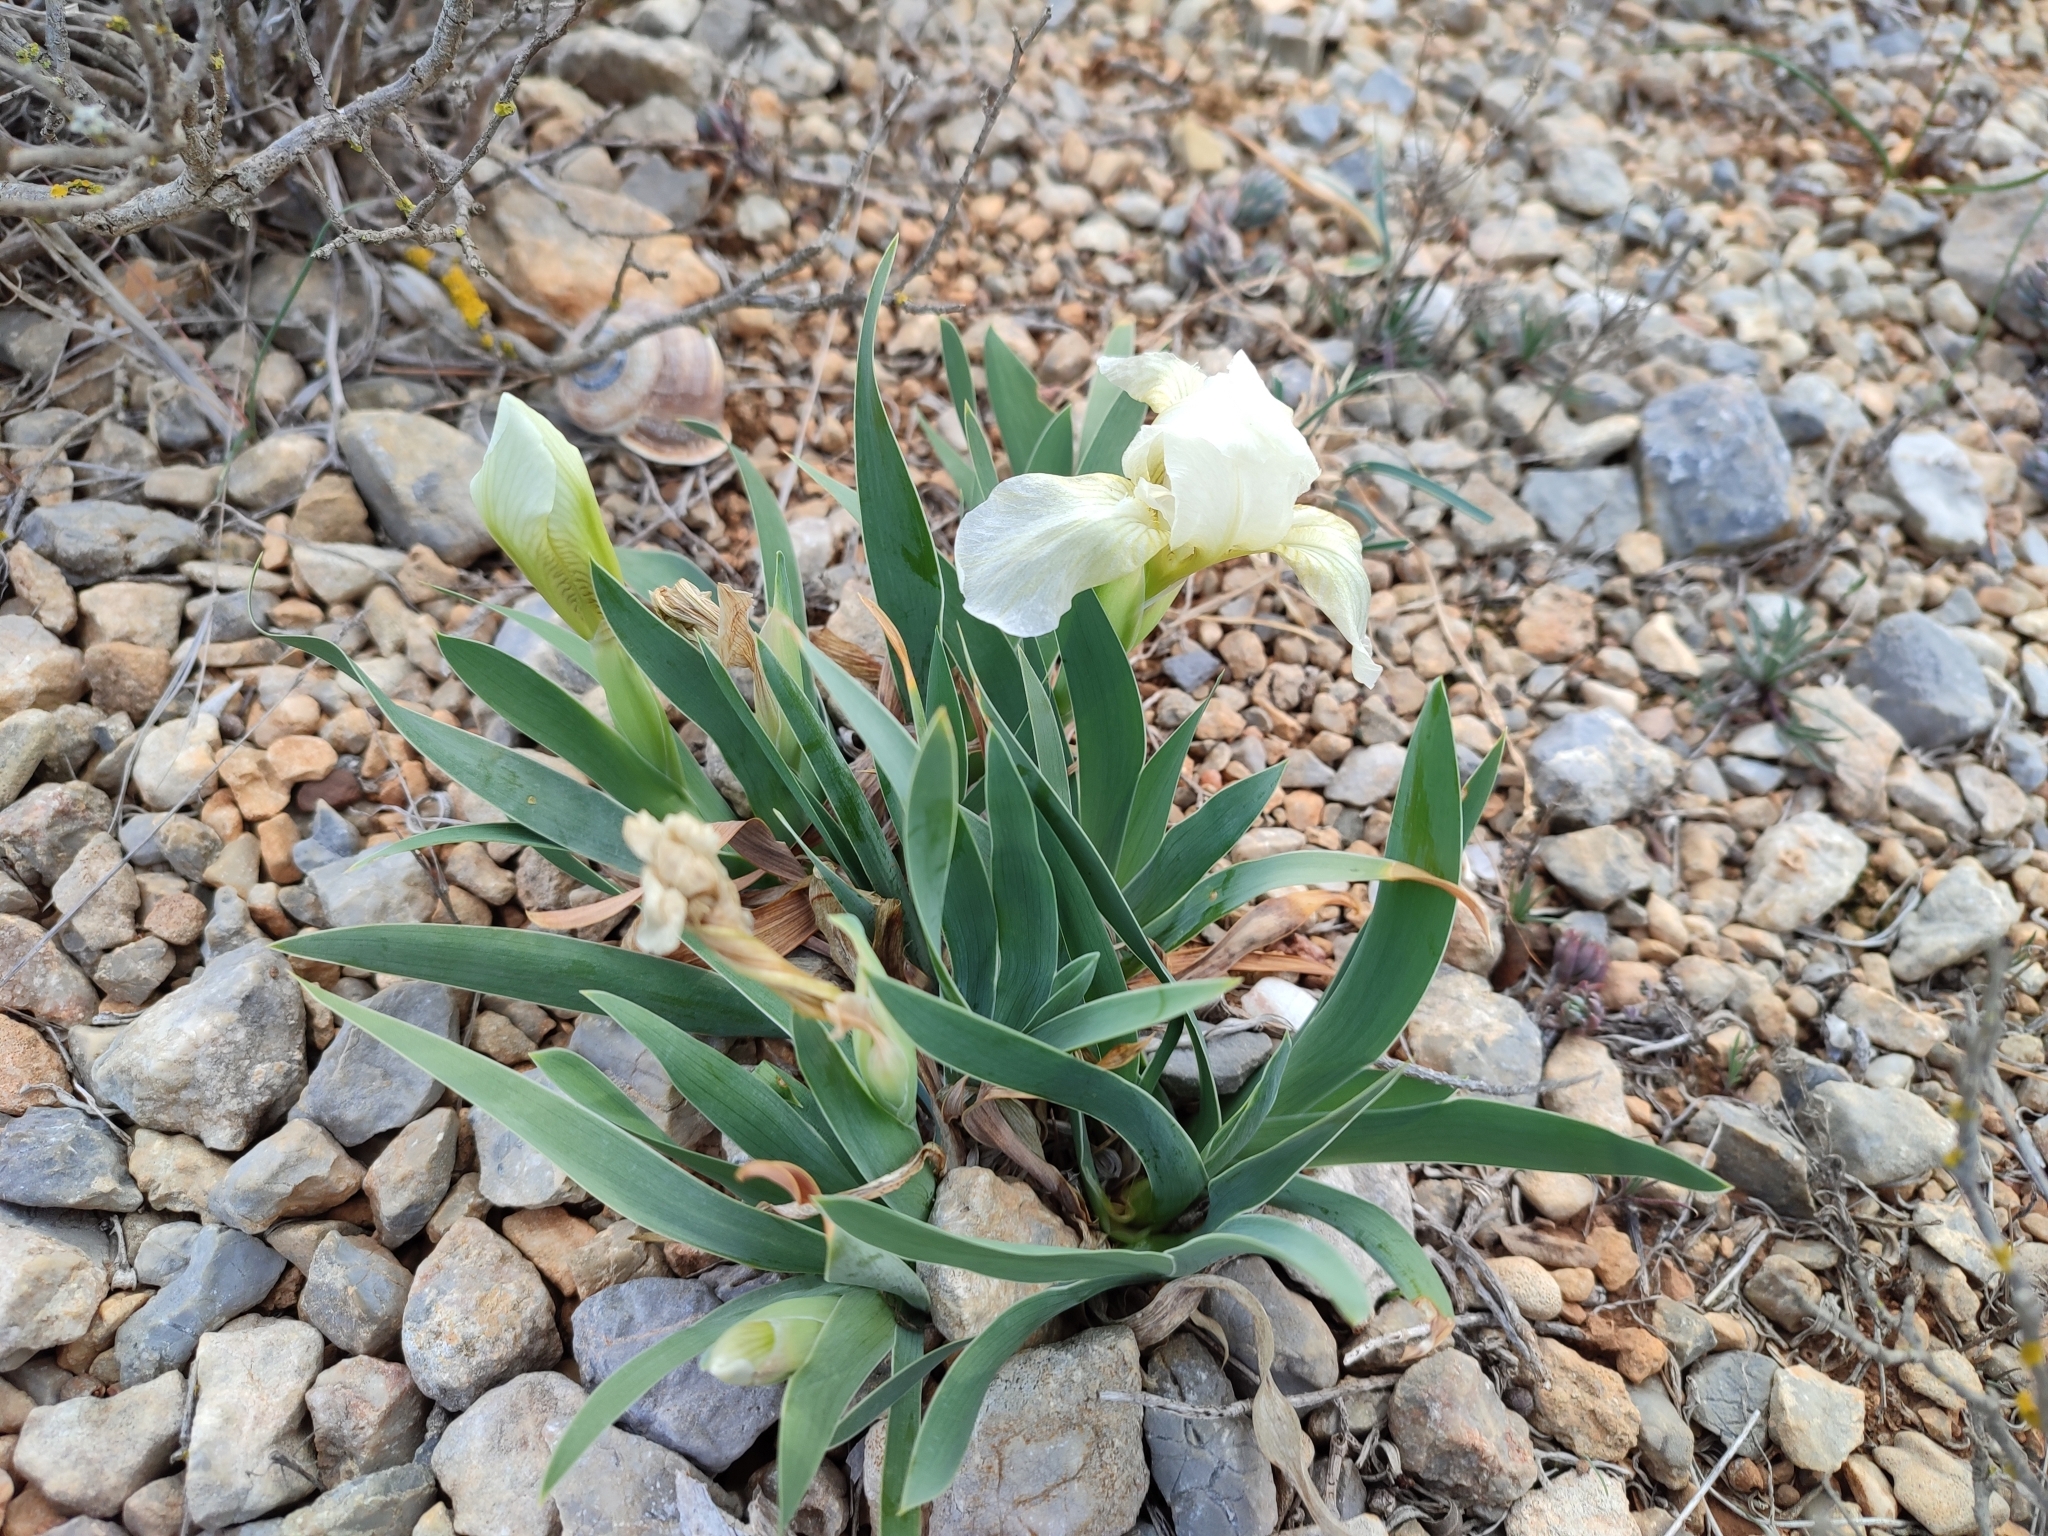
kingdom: Plantae
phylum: Tracheophyta
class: Liliopsida
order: Asparagales
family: Iridaceae
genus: Iris
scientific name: Iris lutescens
